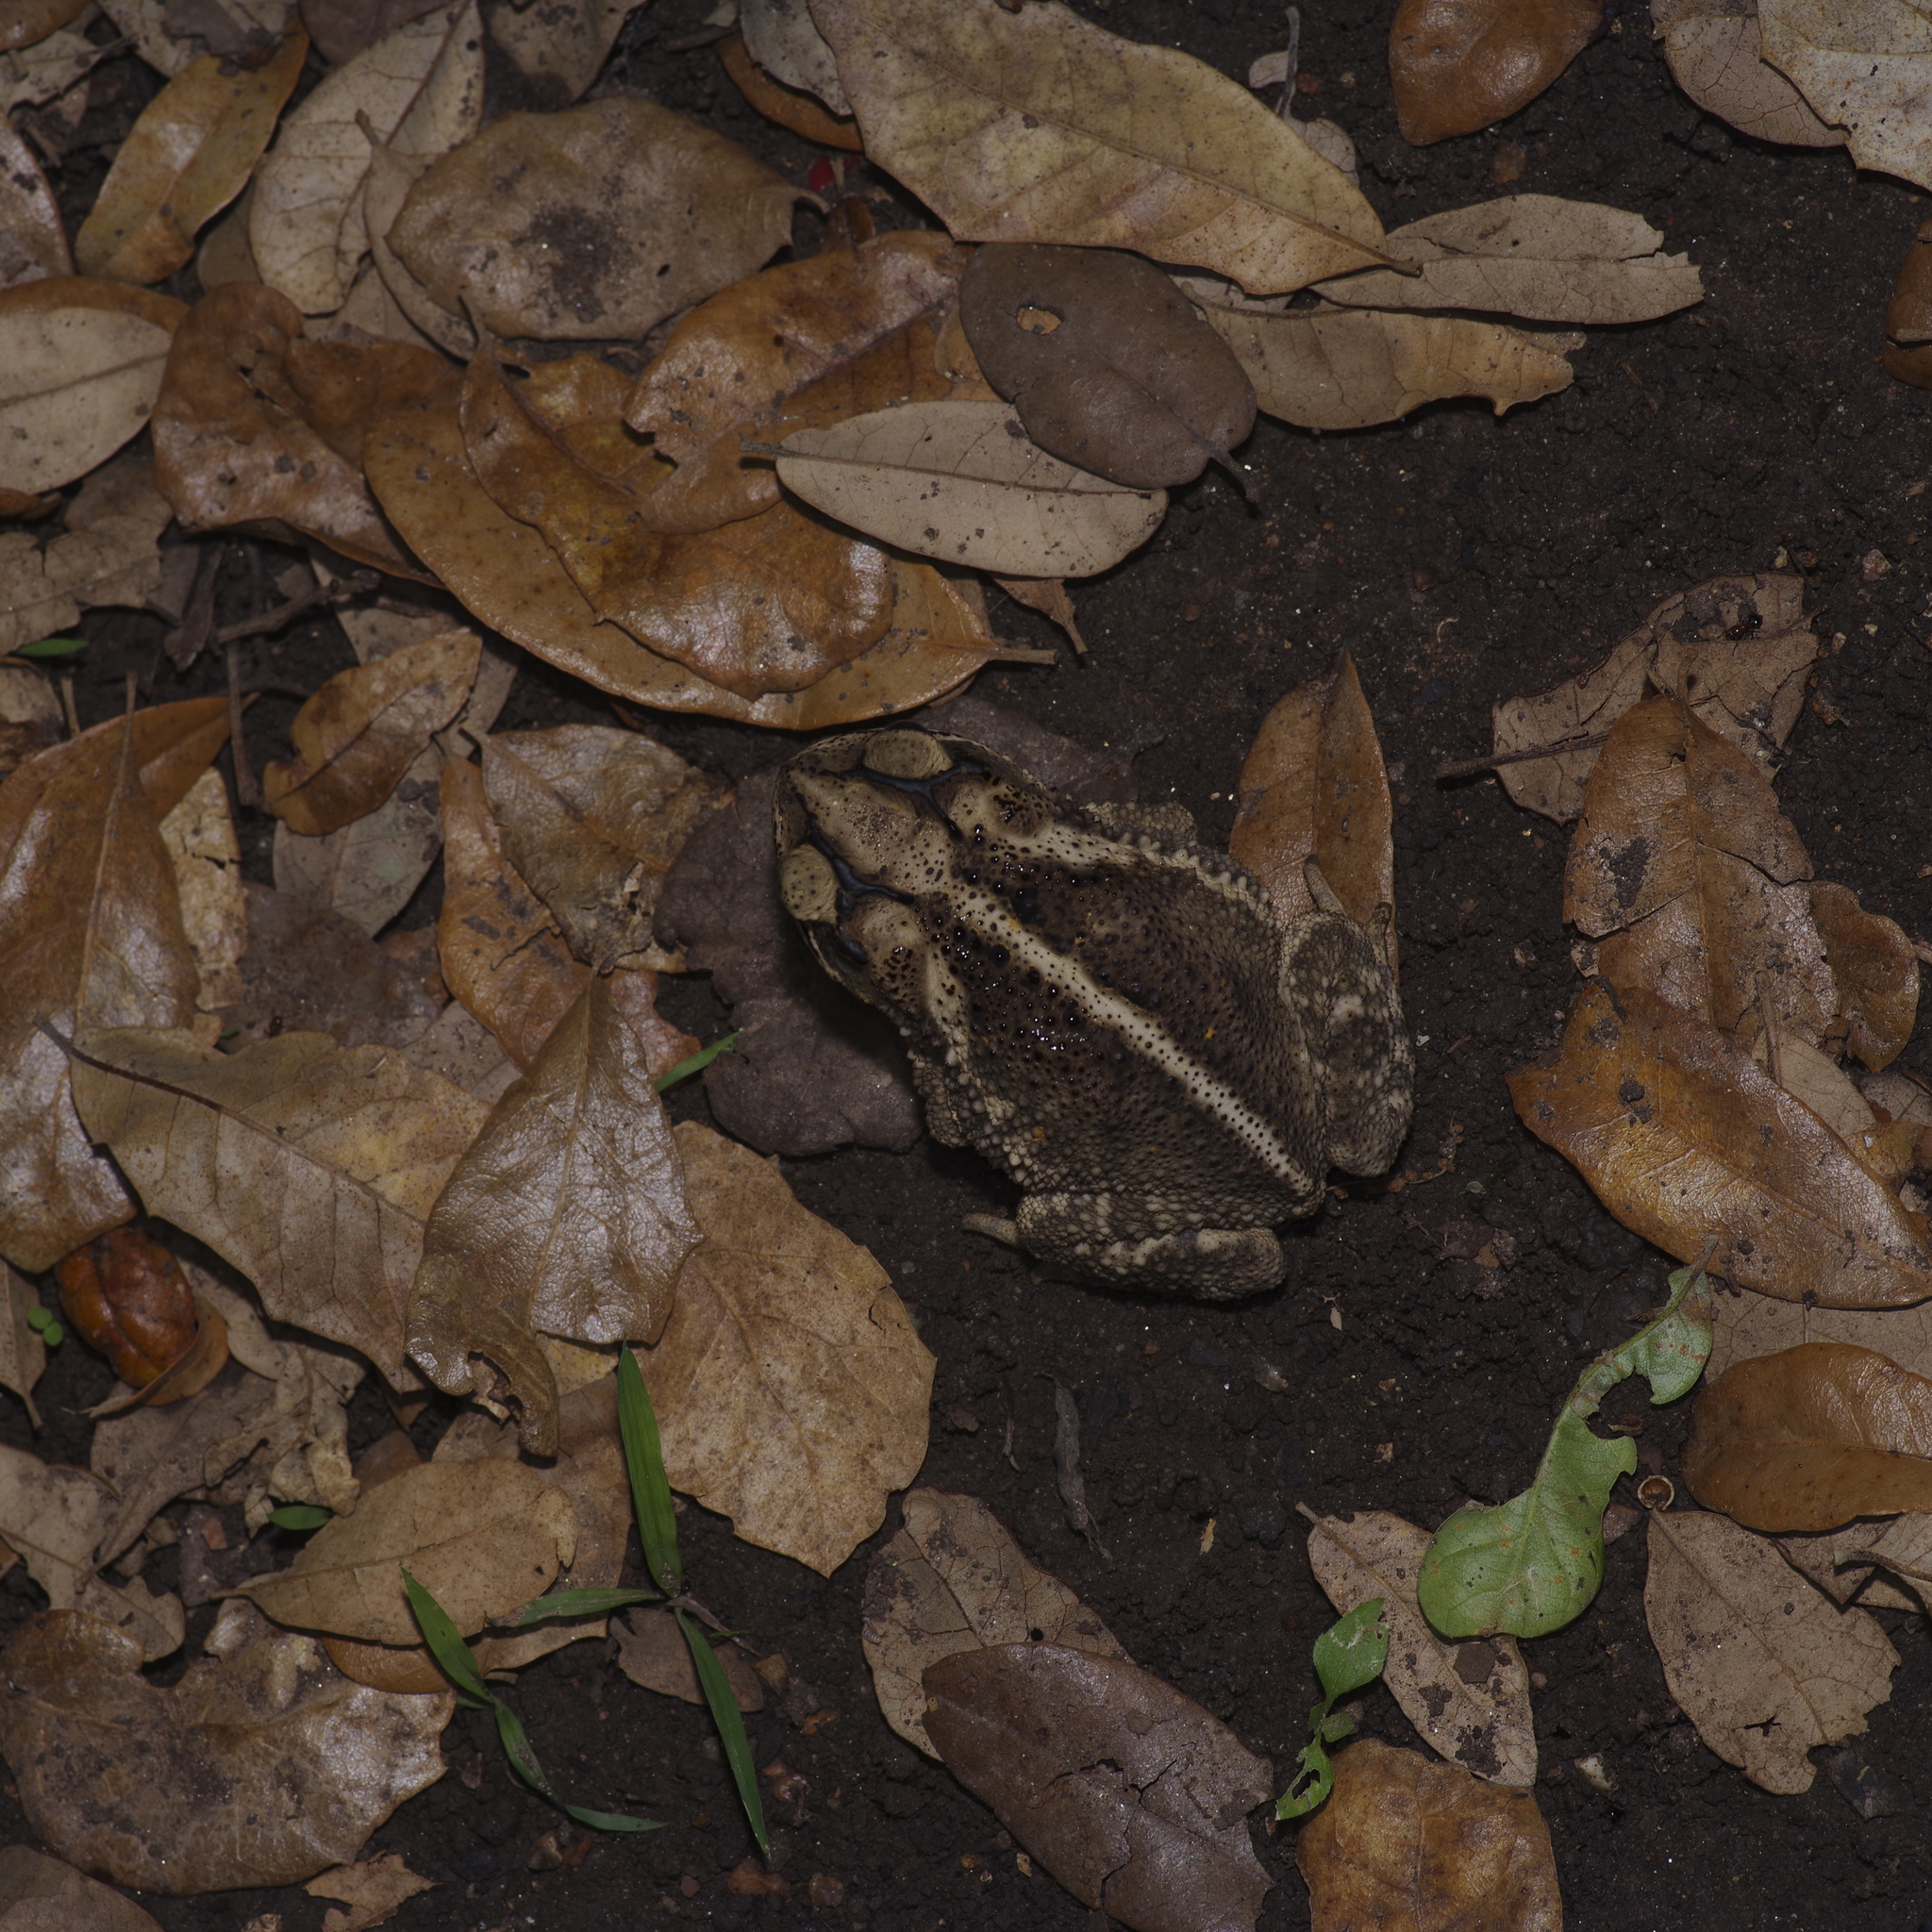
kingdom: Animalia
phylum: Chordata
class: Amphibia
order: Anura
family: Bufonidae
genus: Incilius
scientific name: Incilius nebulifer
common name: Gulf coast toad
